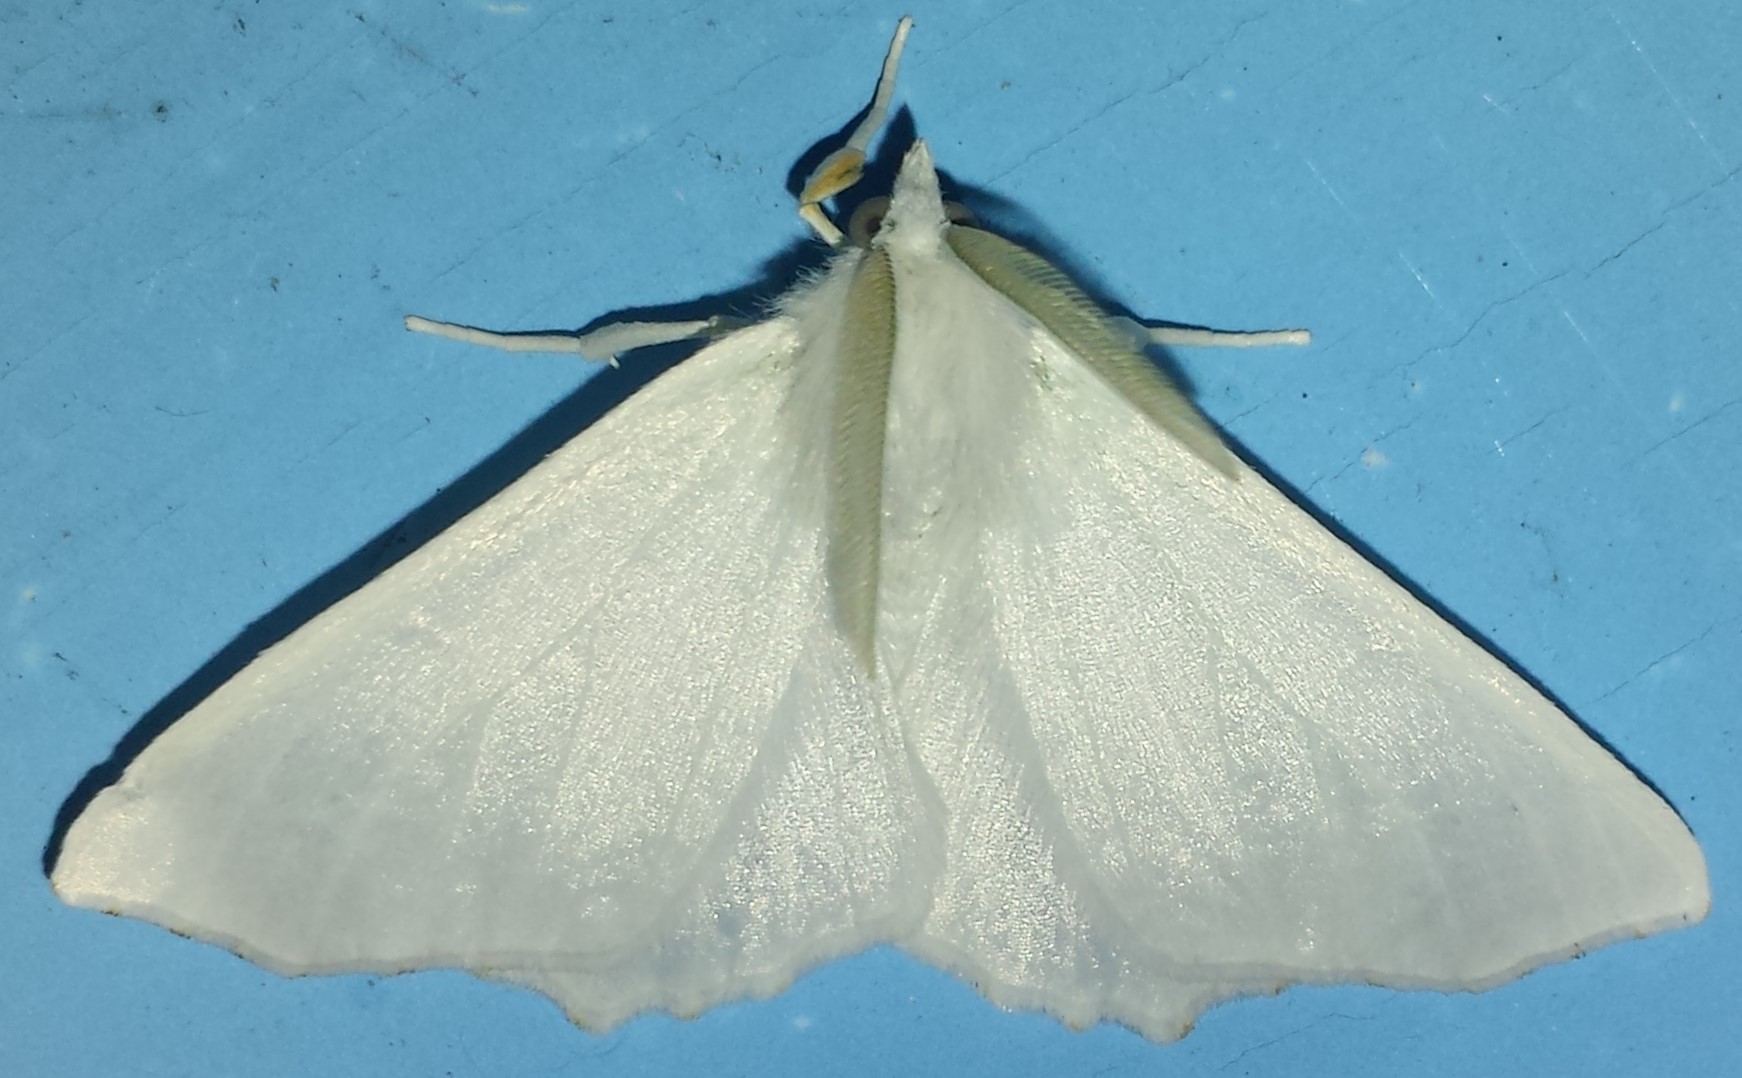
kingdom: Animalia
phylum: Arthropoda
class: Insecta
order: Lepidoptera
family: Geometridae
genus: Ennomos
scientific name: Ennomos subsignaria
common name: Elm spanworm
